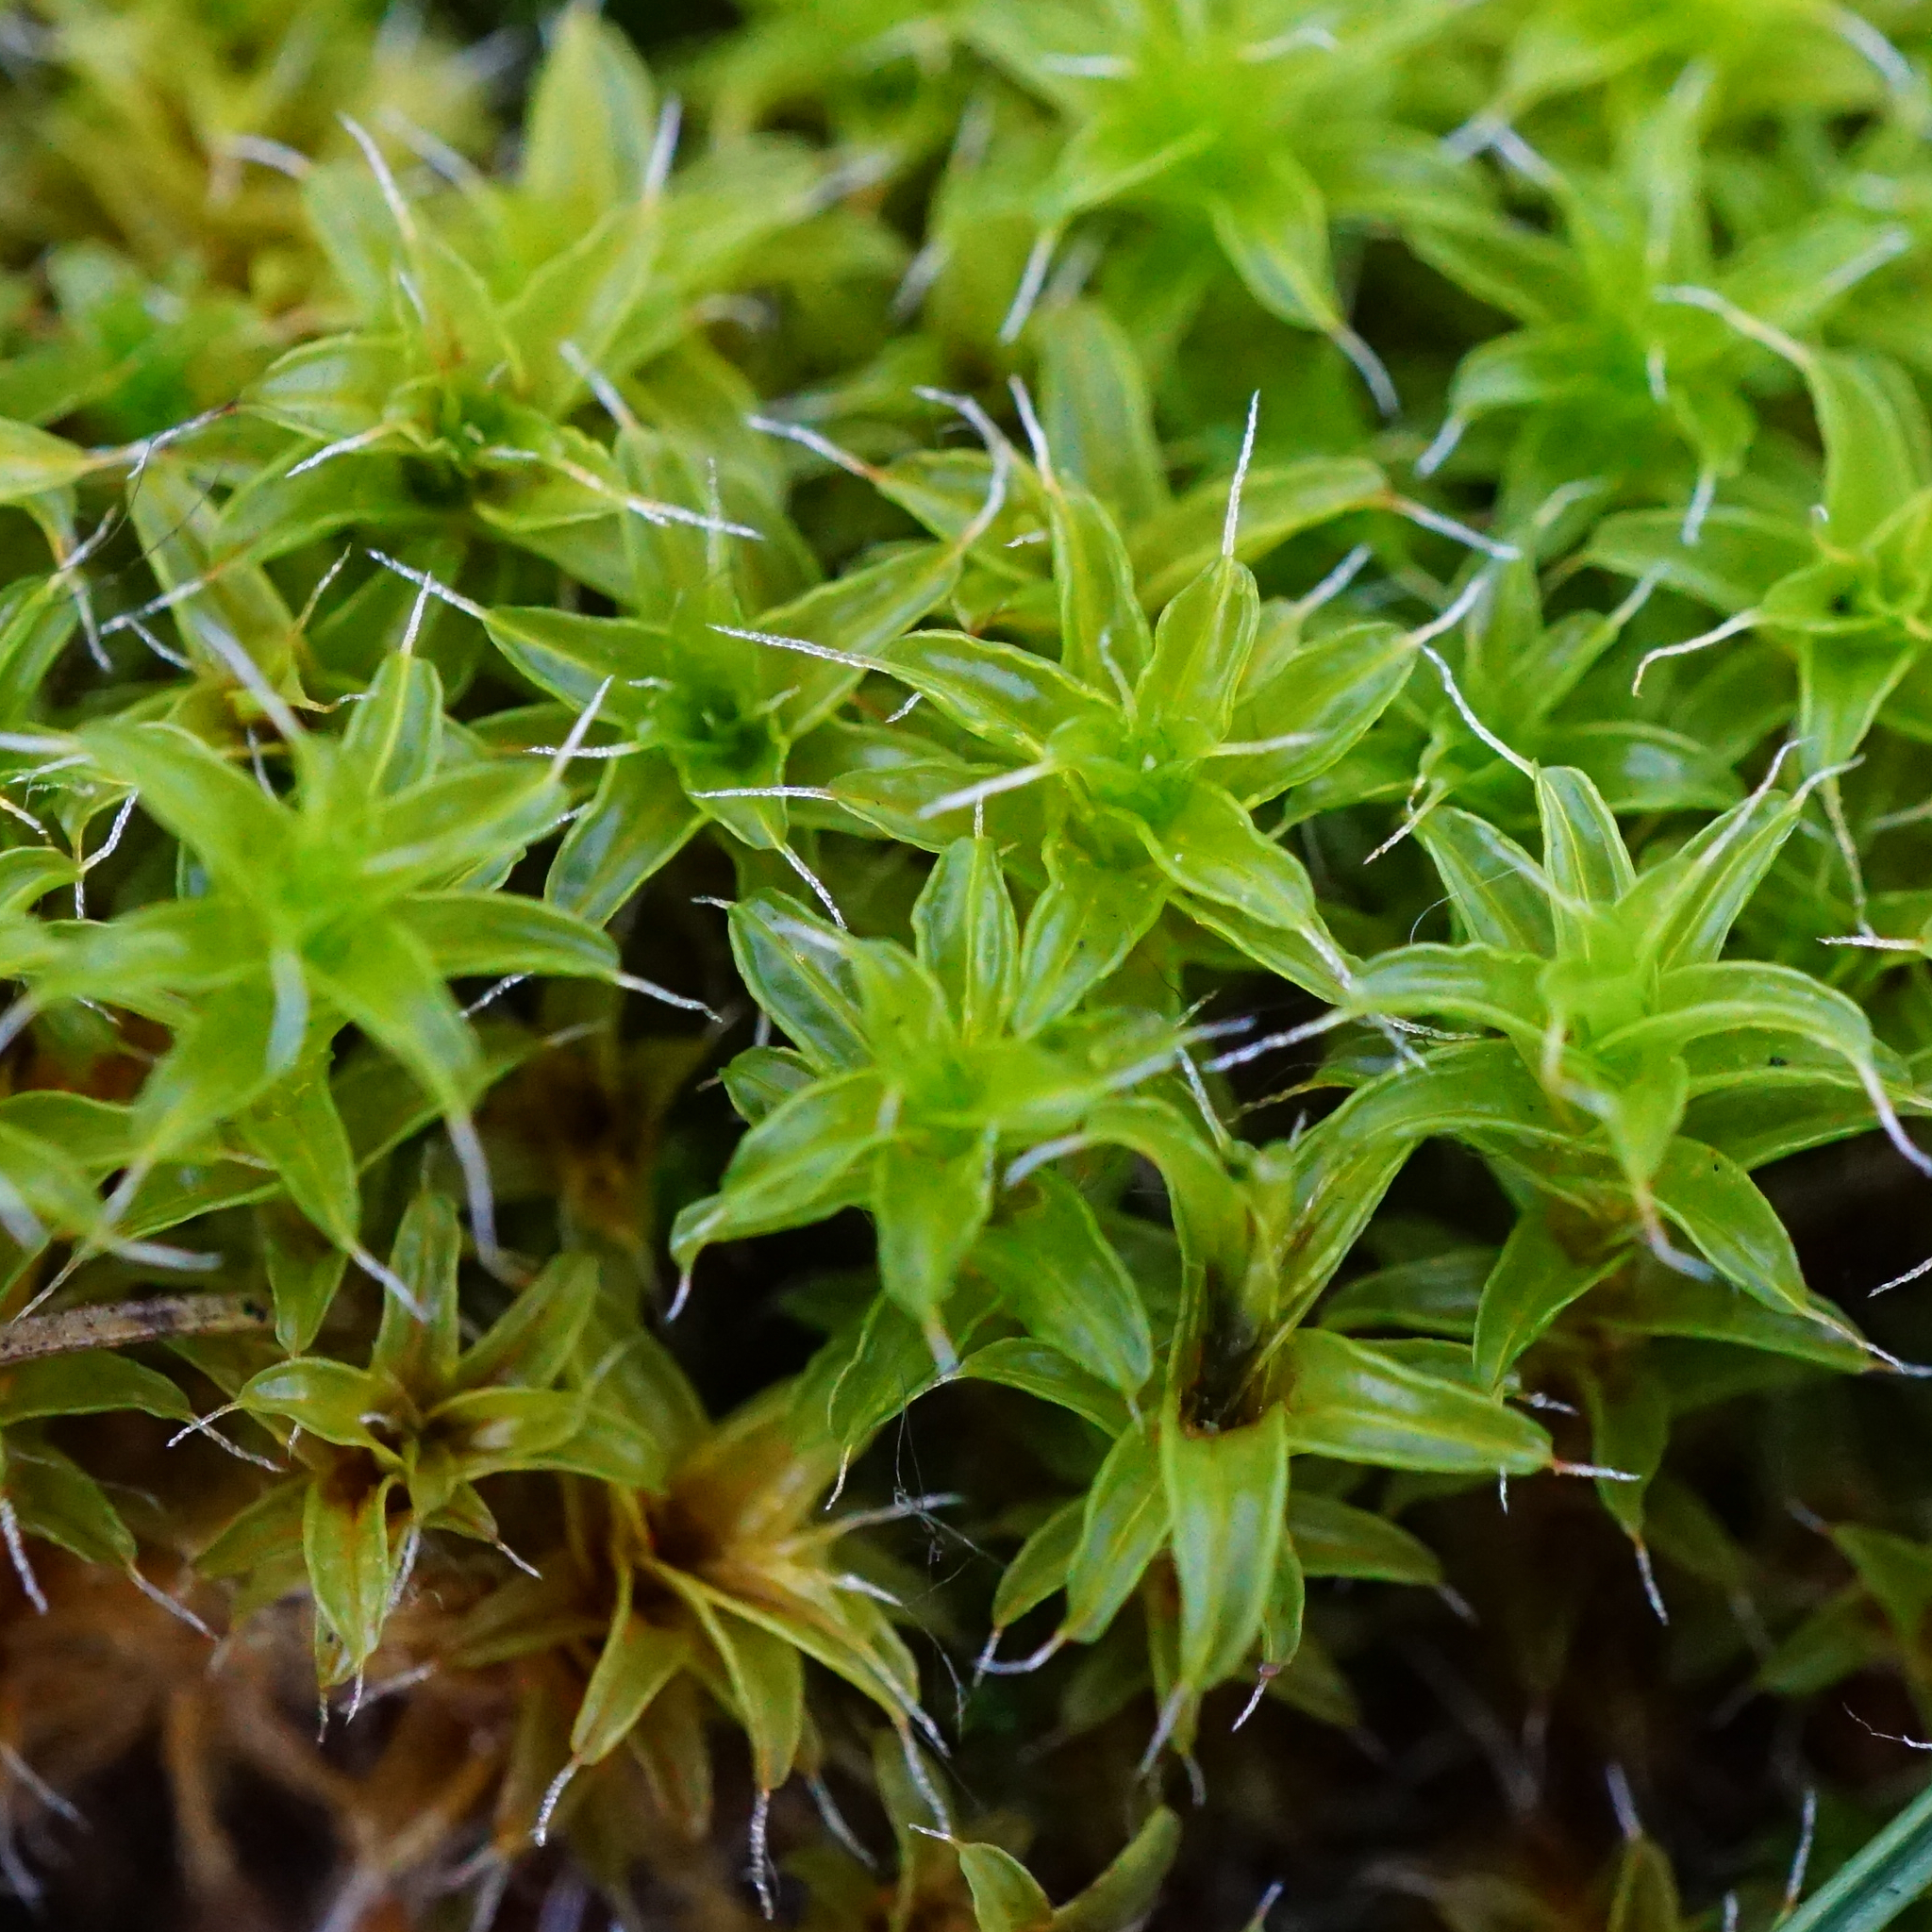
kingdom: Plantae
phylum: Bryophyta
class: Bryopsida
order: Pottiales
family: Pottiaceae
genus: Syntrichia
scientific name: Syntrichia ruralis
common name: Sidewalk screw moss
